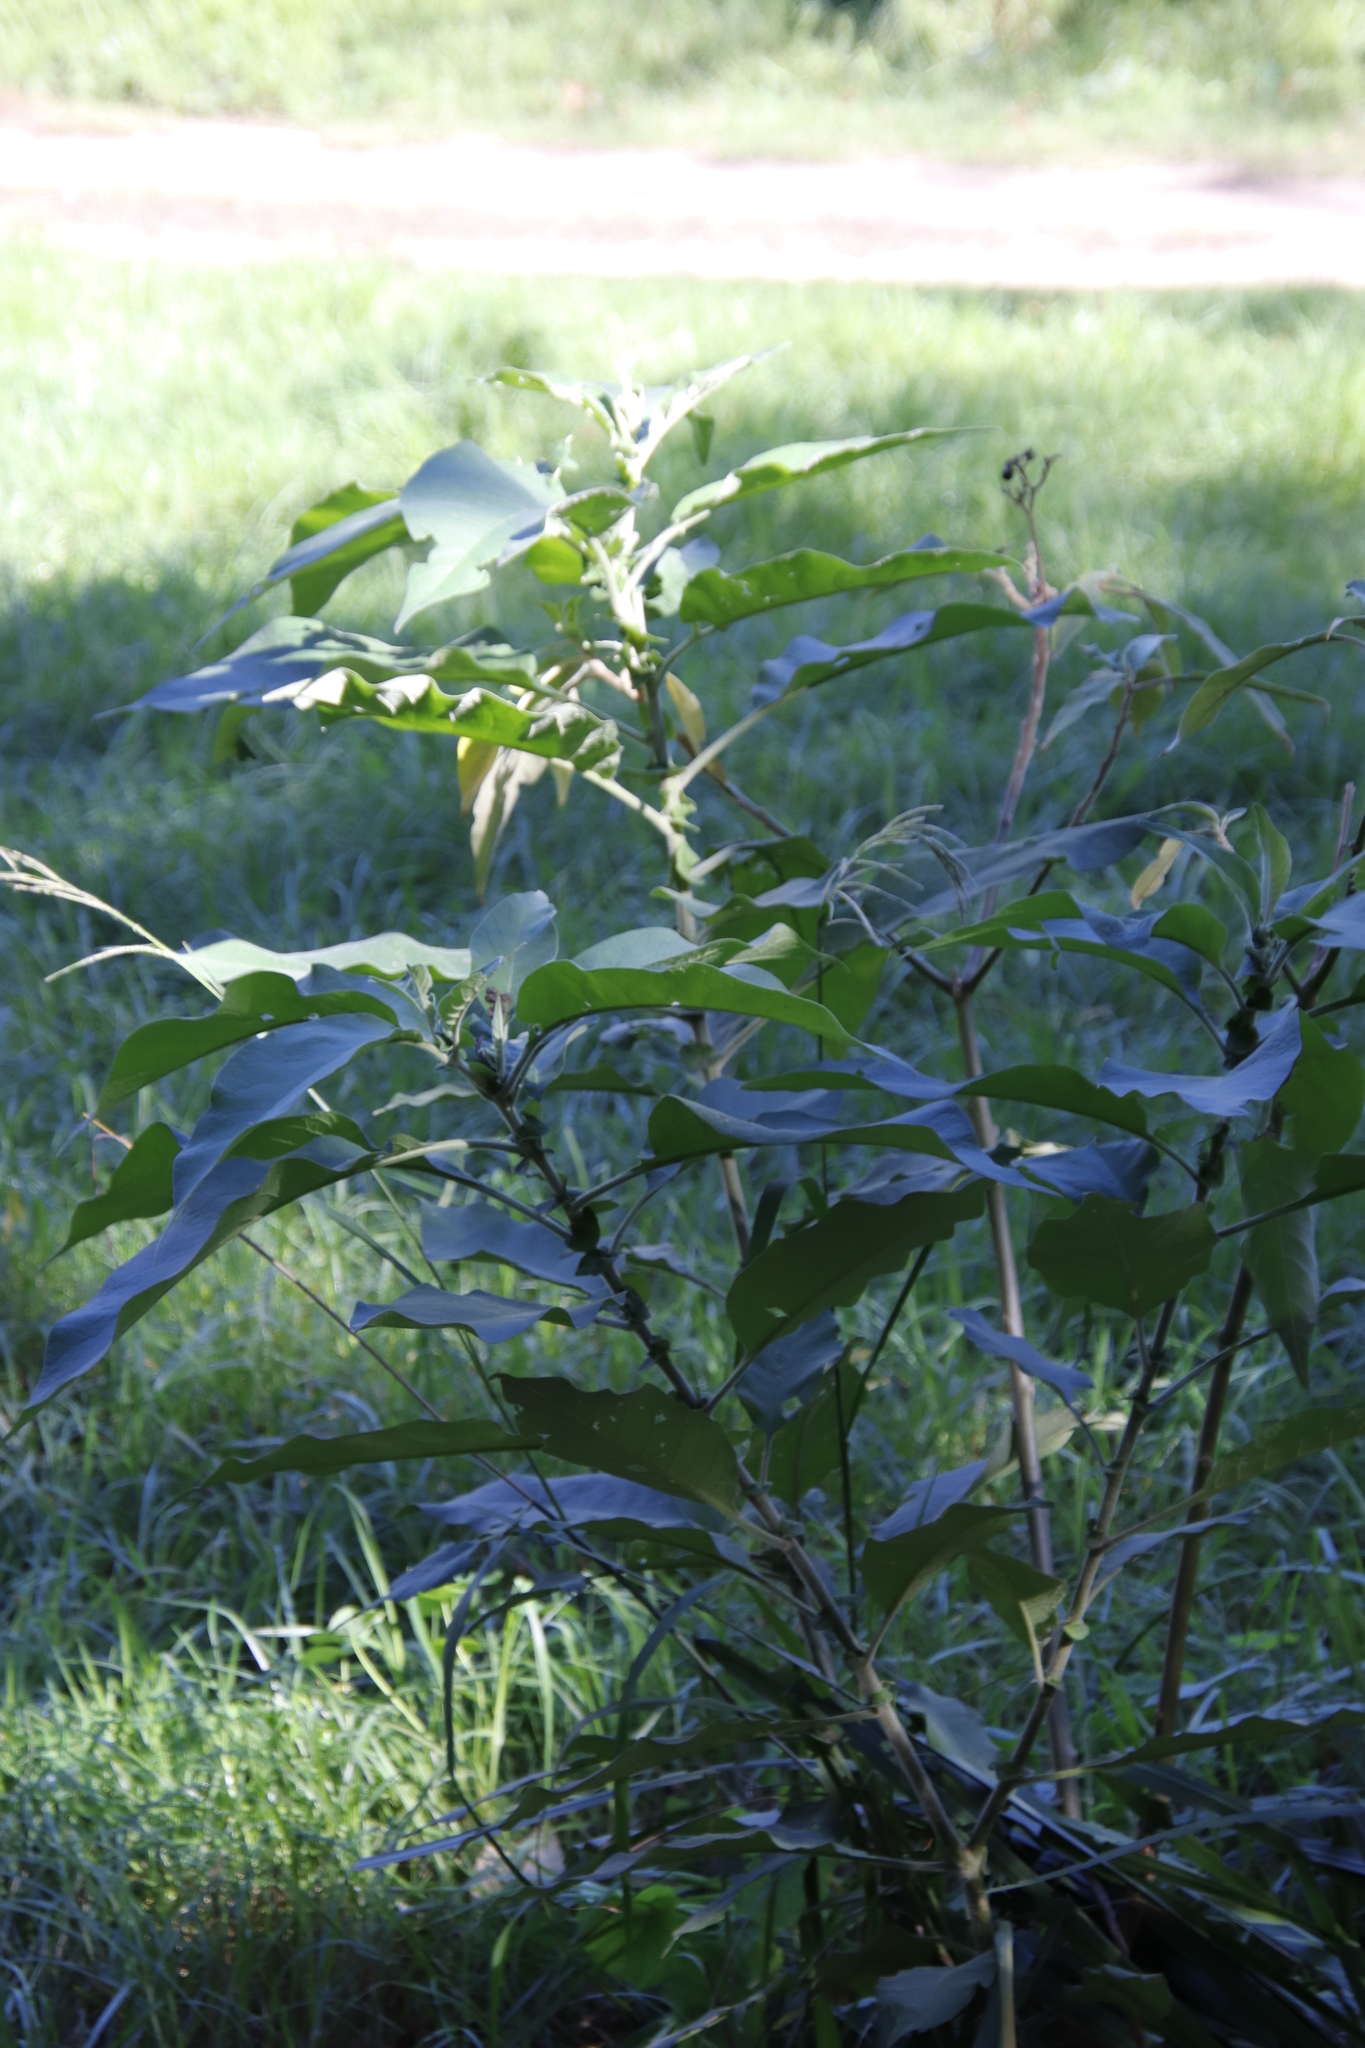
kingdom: Plantae
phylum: Tracheophyta
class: Magnoliopsida
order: Solanales
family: Solanaceae
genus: Solanum
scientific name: Solanum mauritianum
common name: Earleaf nightshade
